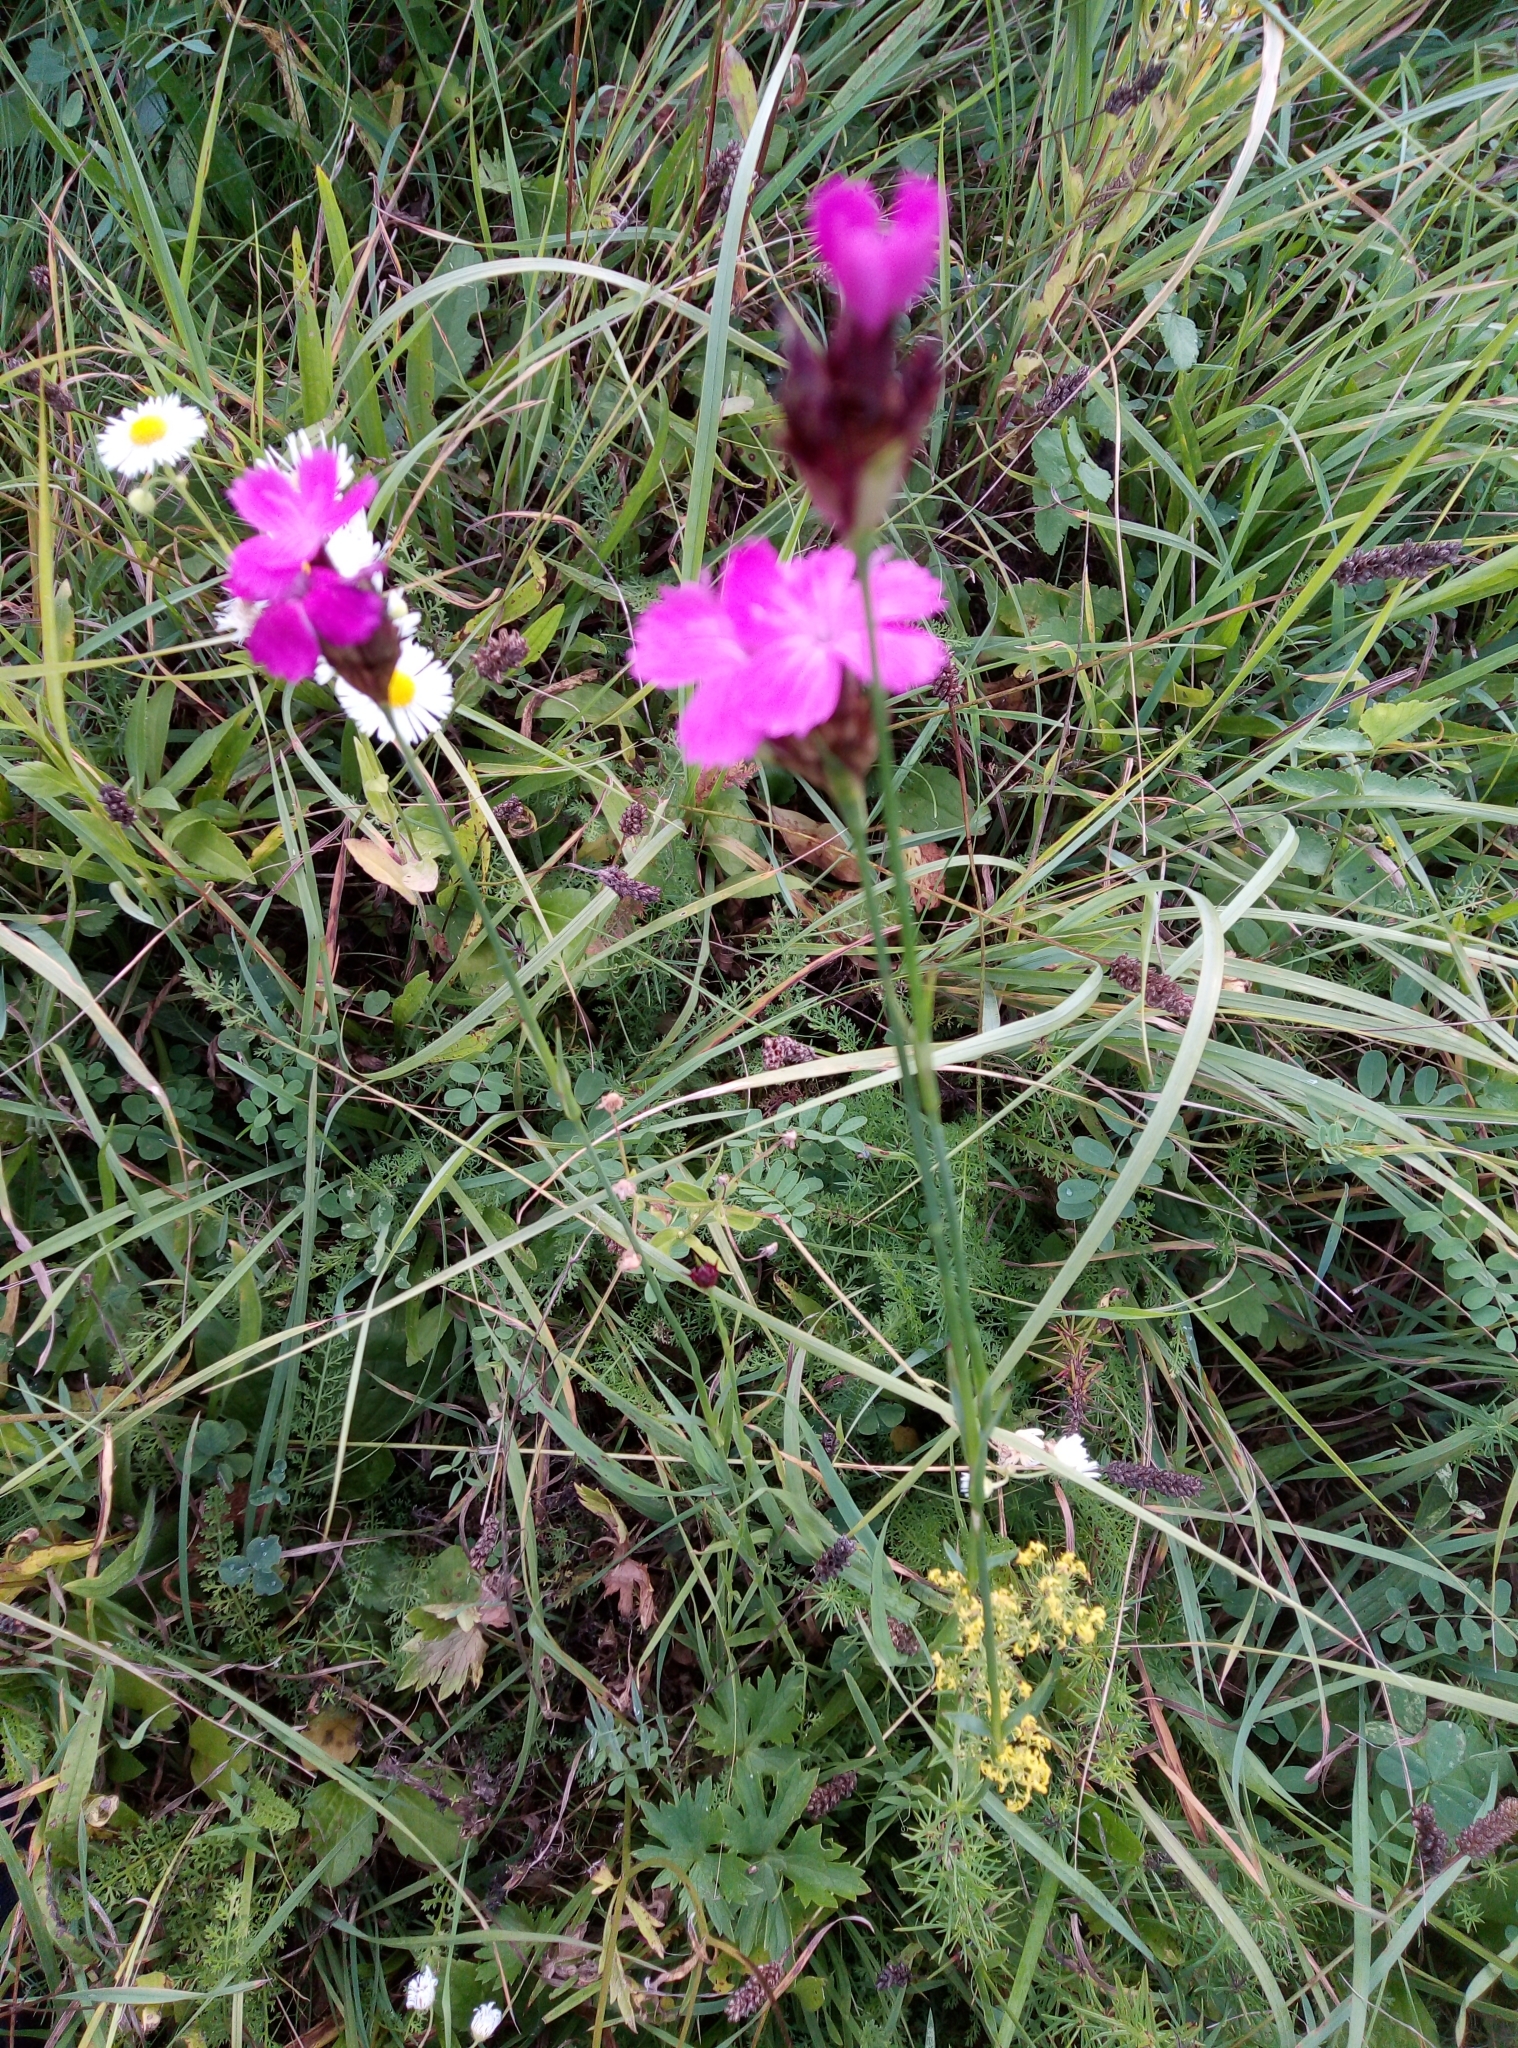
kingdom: Plantae
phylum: Tracheophyta
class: Magnoliopsida
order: Caryophyllales
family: Caryophyllaceae
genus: Dianthus
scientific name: Dianthus carthusianorum
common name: Carthusian pink
